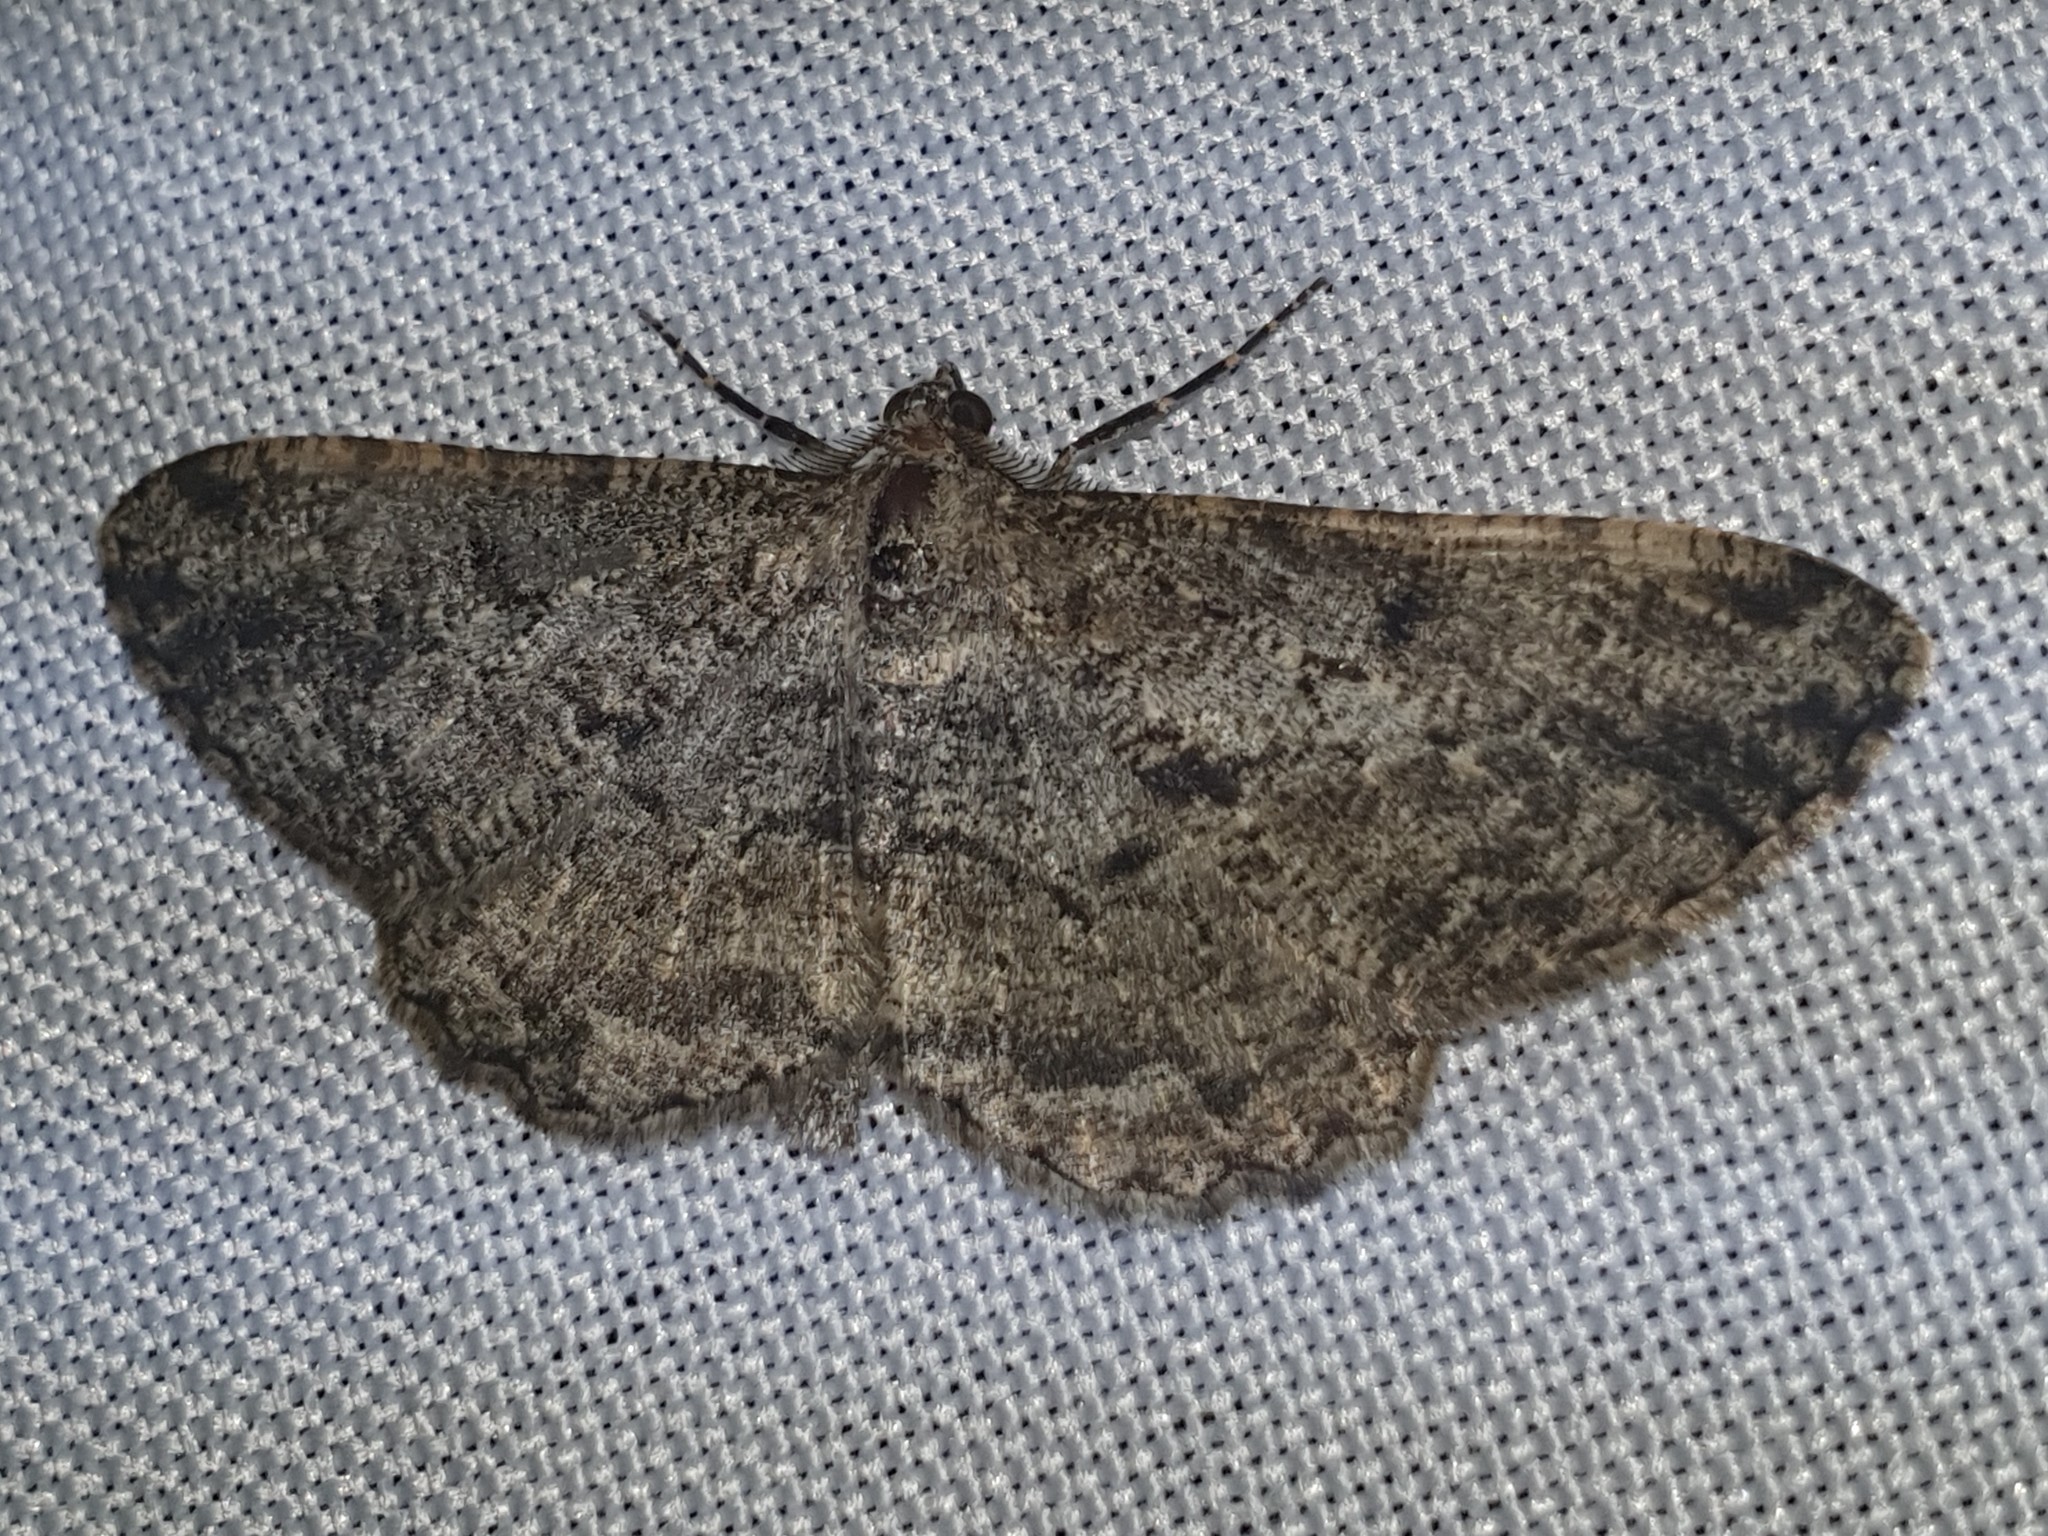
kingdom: Animalia
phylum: Arthropoda
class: Insecta
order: Lepidoptera
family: Geometridae
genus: Peribatodes
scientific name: Peribatodes rhomboidaria
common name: Willow beauty
